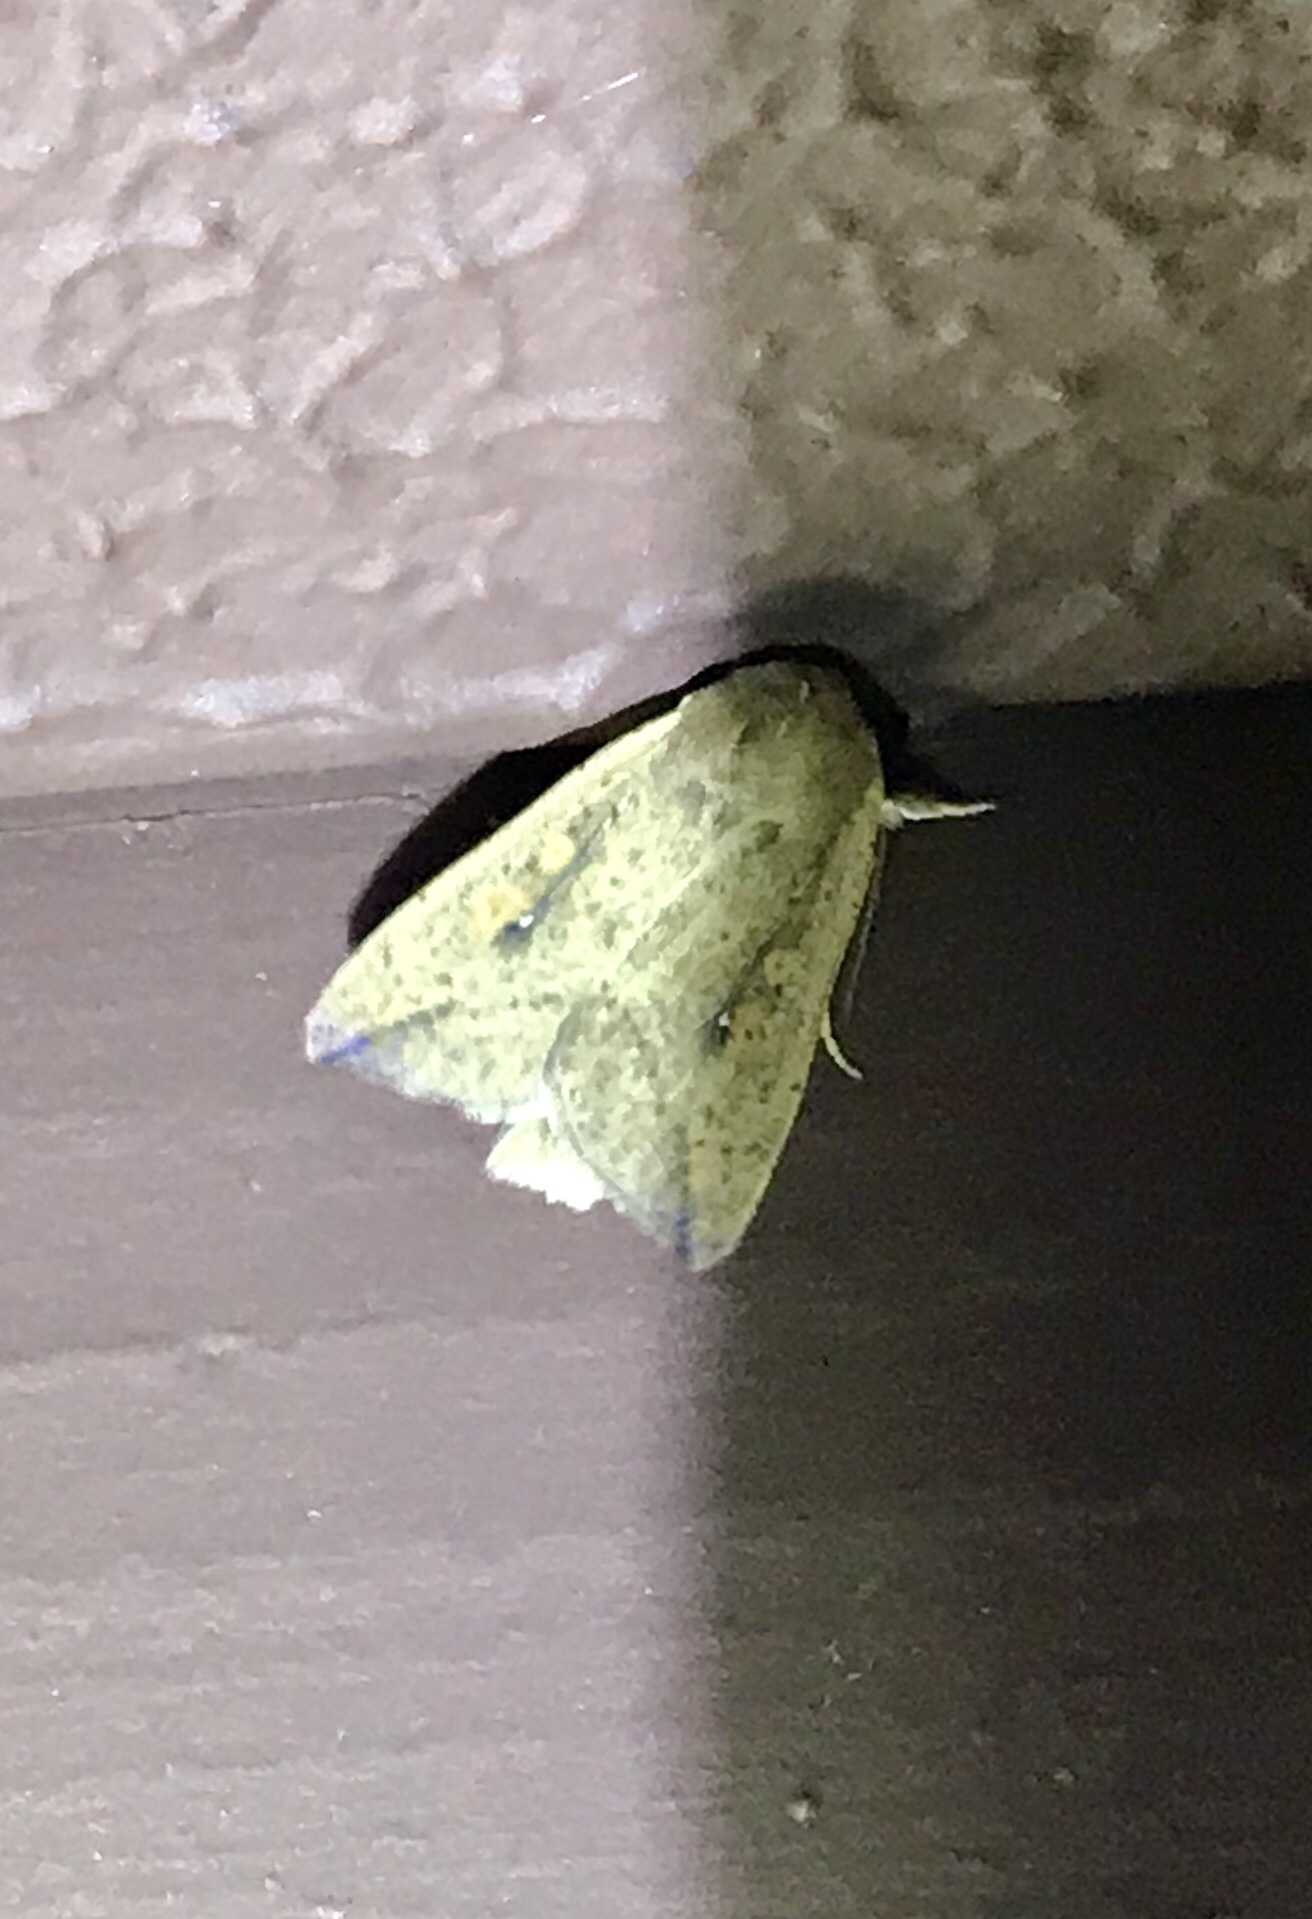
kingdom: Animalia
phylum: Arthropoda
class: Insecta
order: Lepidoptera
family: Noctuidae
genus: Mythimna
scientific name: Mythimna unipuncta
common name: White-speck
